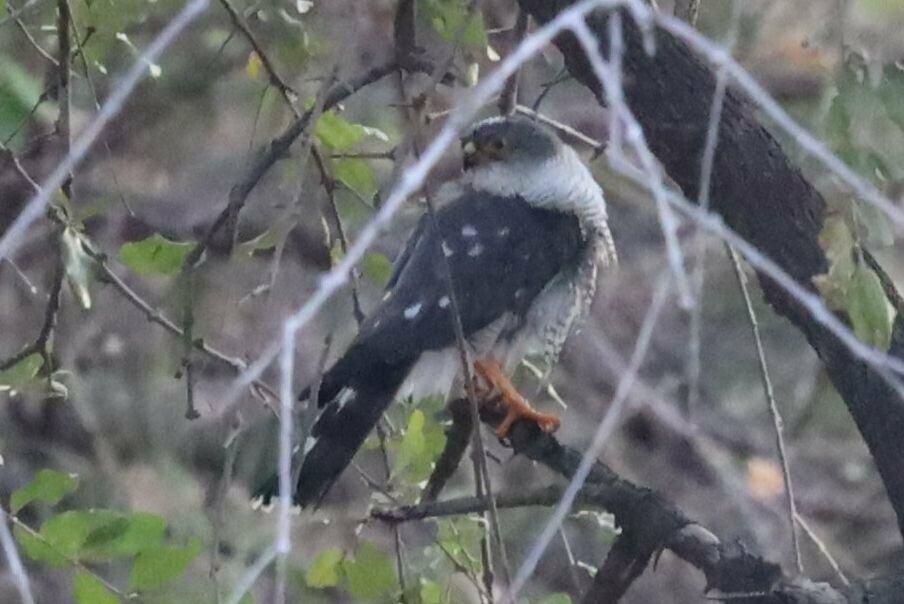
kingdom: Animalia
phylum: Chordata
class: Aves
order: Accipitriformes
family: Accipitridae
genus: Accipiter
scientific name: Accipiter minullus
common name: Little sparrowhawk
